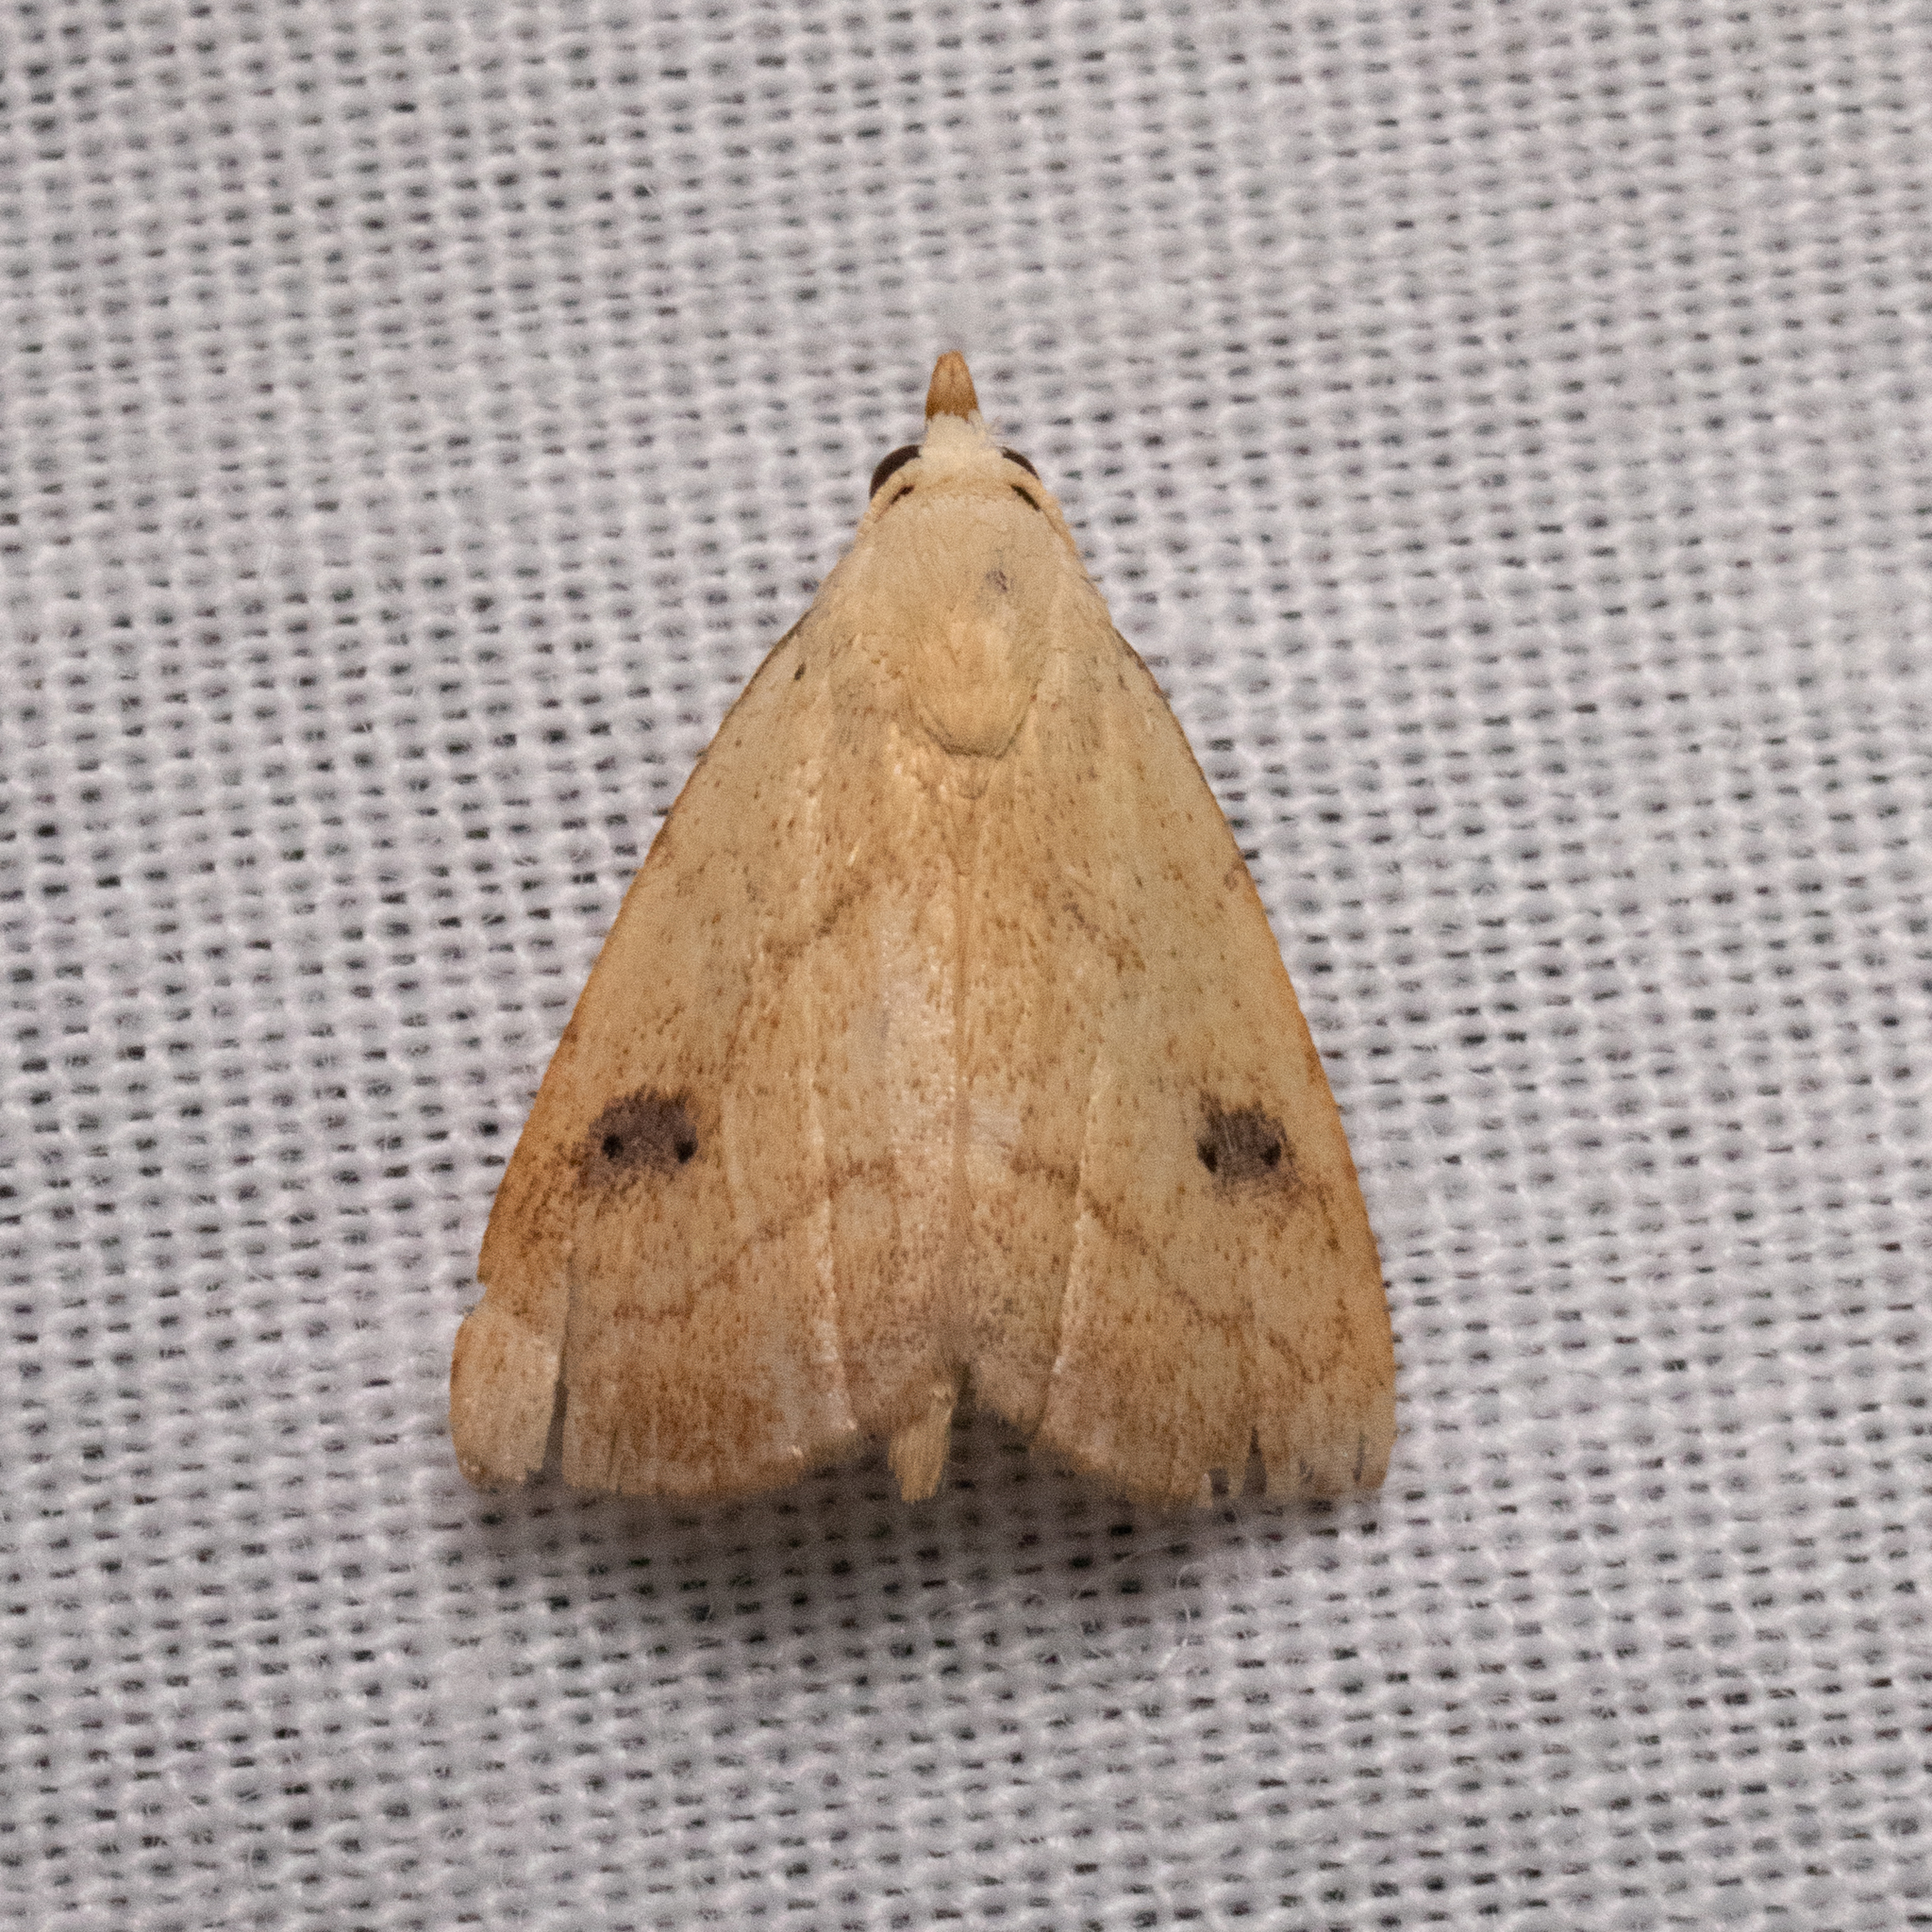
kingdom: Animalia
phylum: Arthropoda
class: Insecta
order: Lepidoptera
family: Erebidae
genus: Rivula
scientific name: Rivula propinqualis
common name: Spotted grass moth
